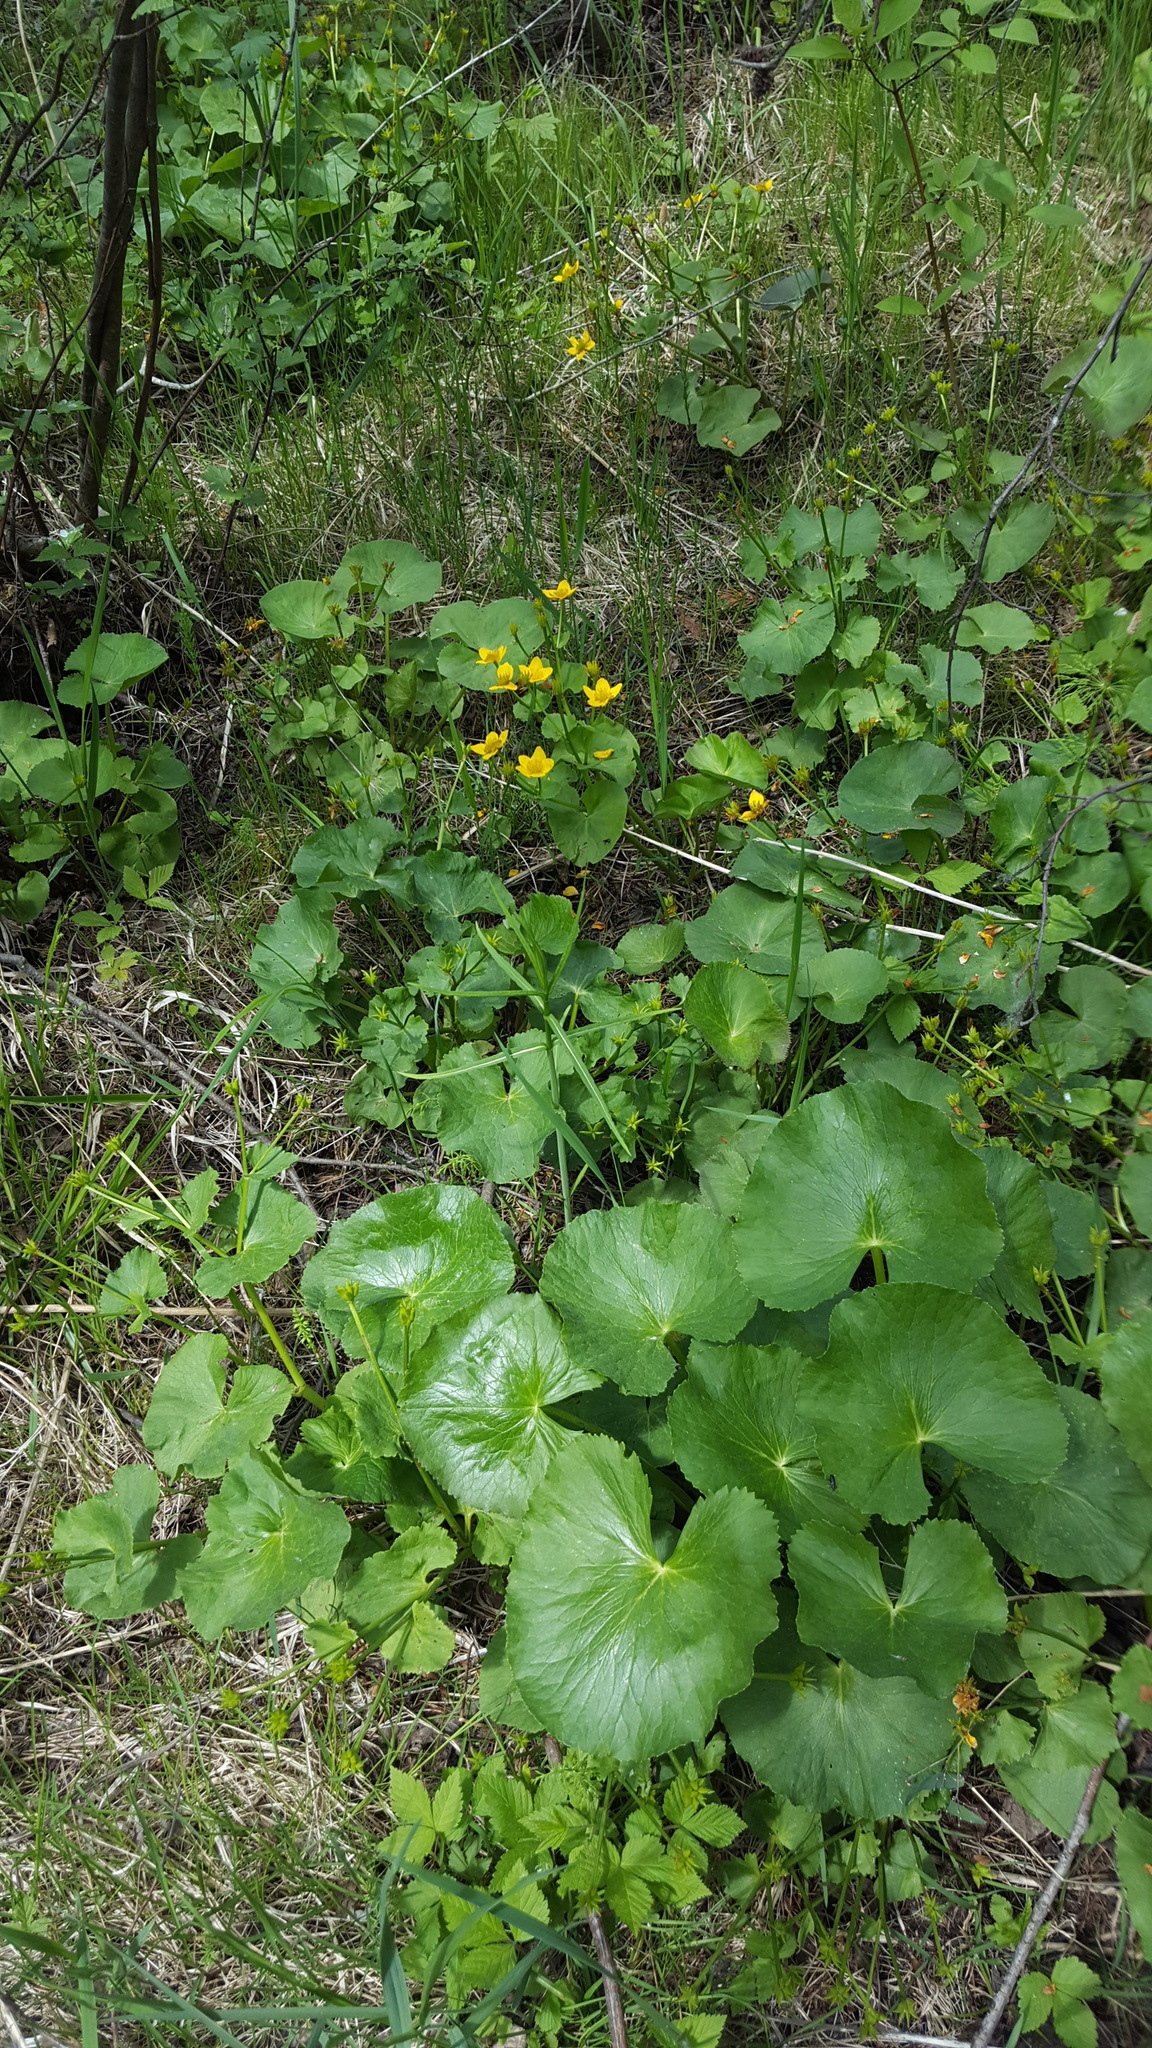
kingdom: Plantae
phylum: Tracheophyta
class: Magnoliopsida
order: Ranunculales
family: Ranunculaceae
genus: Caltha
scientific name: Caltha palustris
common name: Marsh marigold
